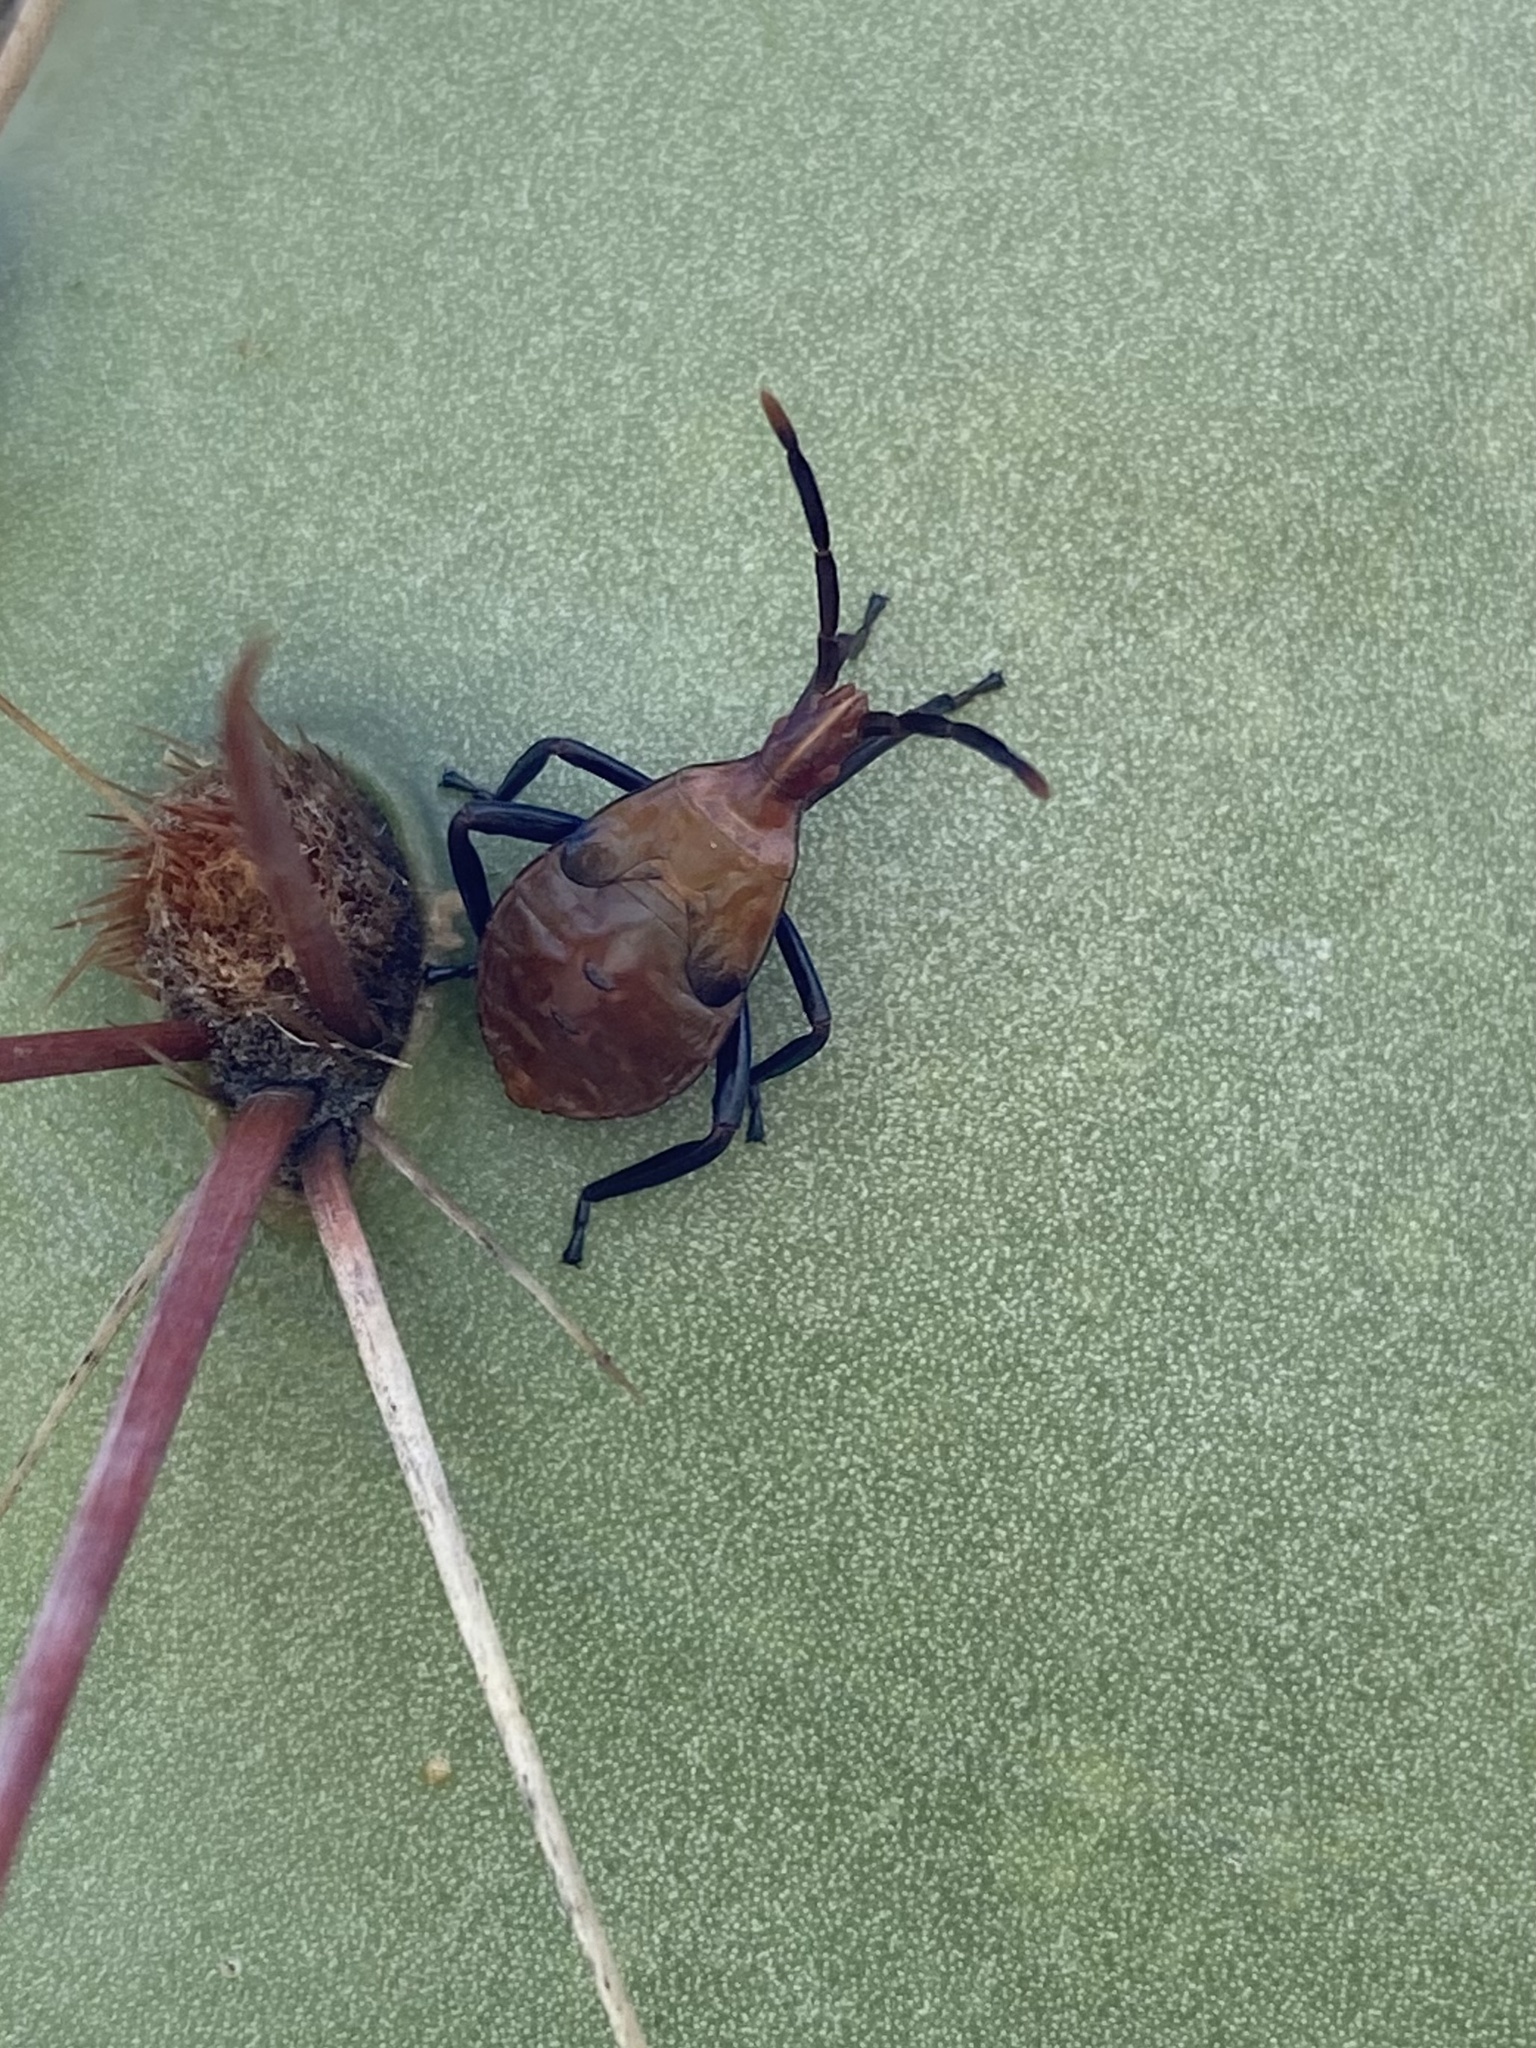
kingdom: Animalia
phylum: Arthropoda
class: Insecta
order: Hemiptera
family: Coreidae
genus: Chelinidea
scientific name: Chelinidea vittiger
